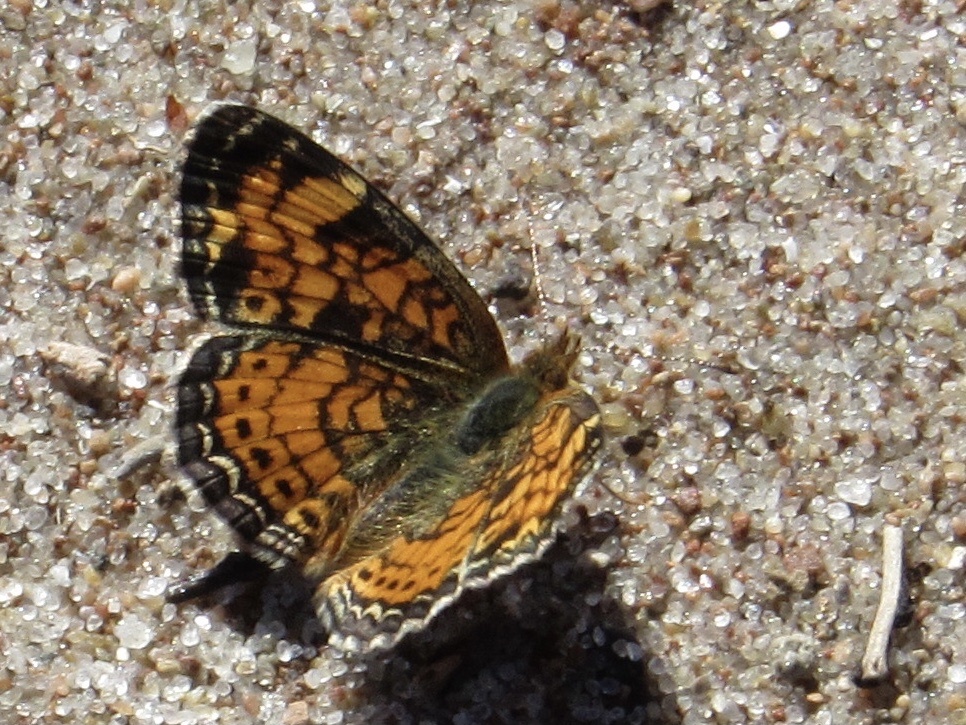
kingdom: Animalia
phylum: Arthropoda
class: Insecta
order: Lepidoptera
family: Nymphalidae
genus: Phyciodes
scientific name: Phyciodes tharos
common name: Pearl crescent
